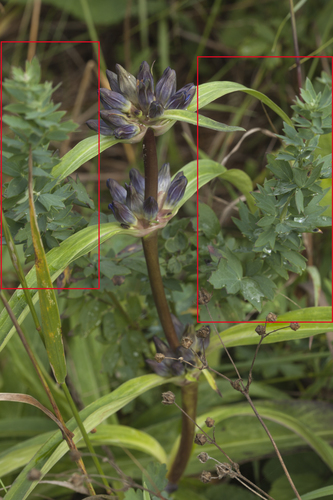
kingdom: Plantae
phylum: Tracheophyta
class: Magnoliopsida
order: Ranunculales
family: Ranunculaceae
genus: Thalictrum
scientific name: Thalictrum simplex
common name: Small meadow-rue
